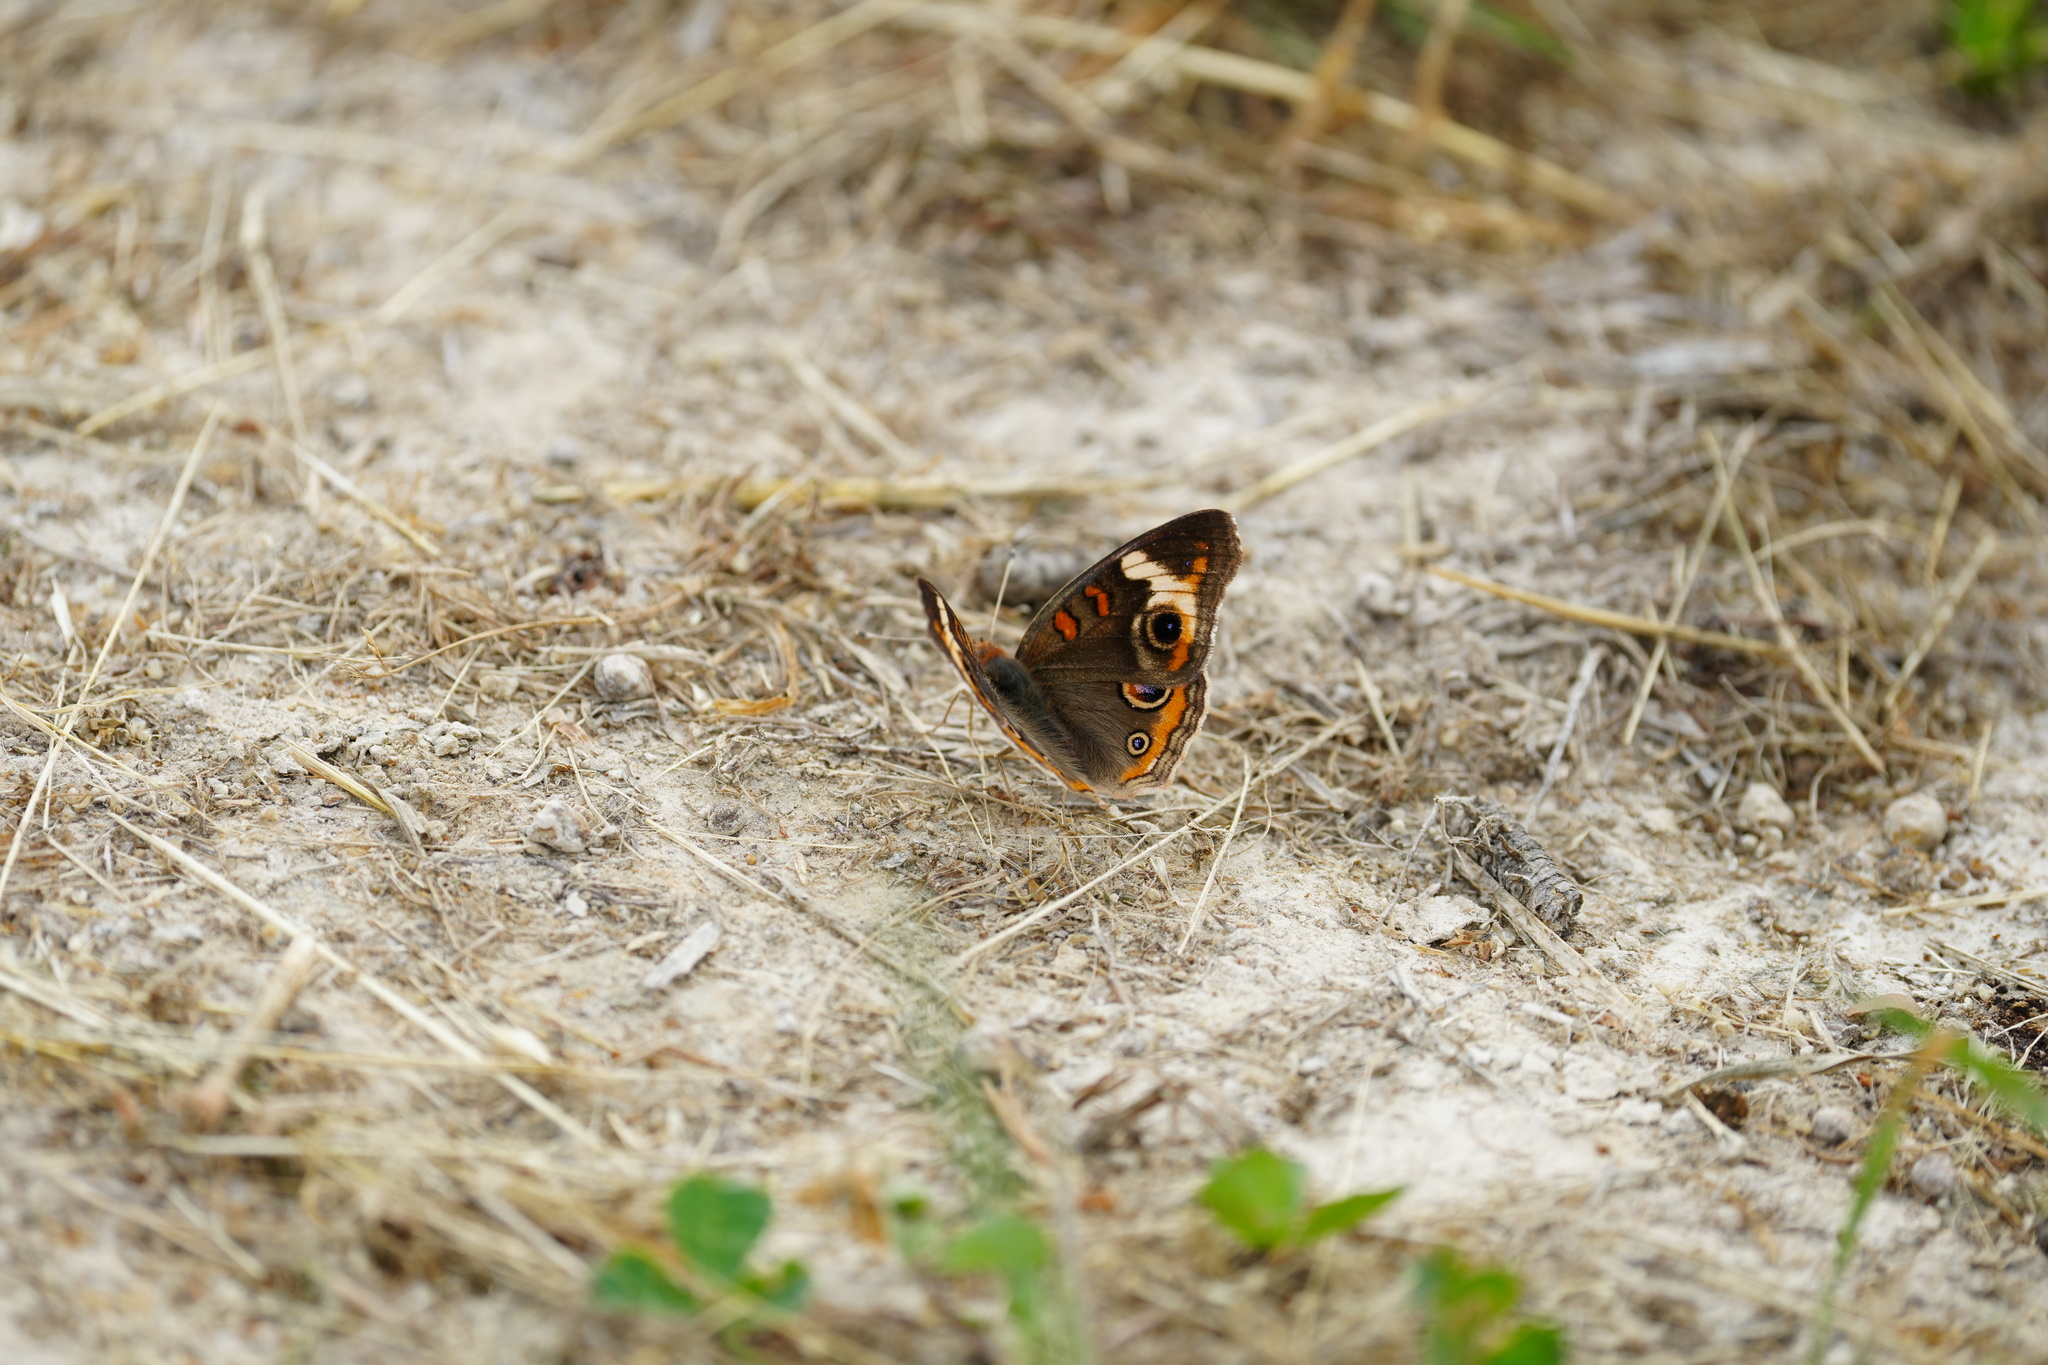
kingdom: Animalia
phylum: Arthropoda
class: Insecta
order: Lepidoptera
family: Nymphalidae
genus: Junonia
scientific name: Junonia coenia
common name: Common buckeye
